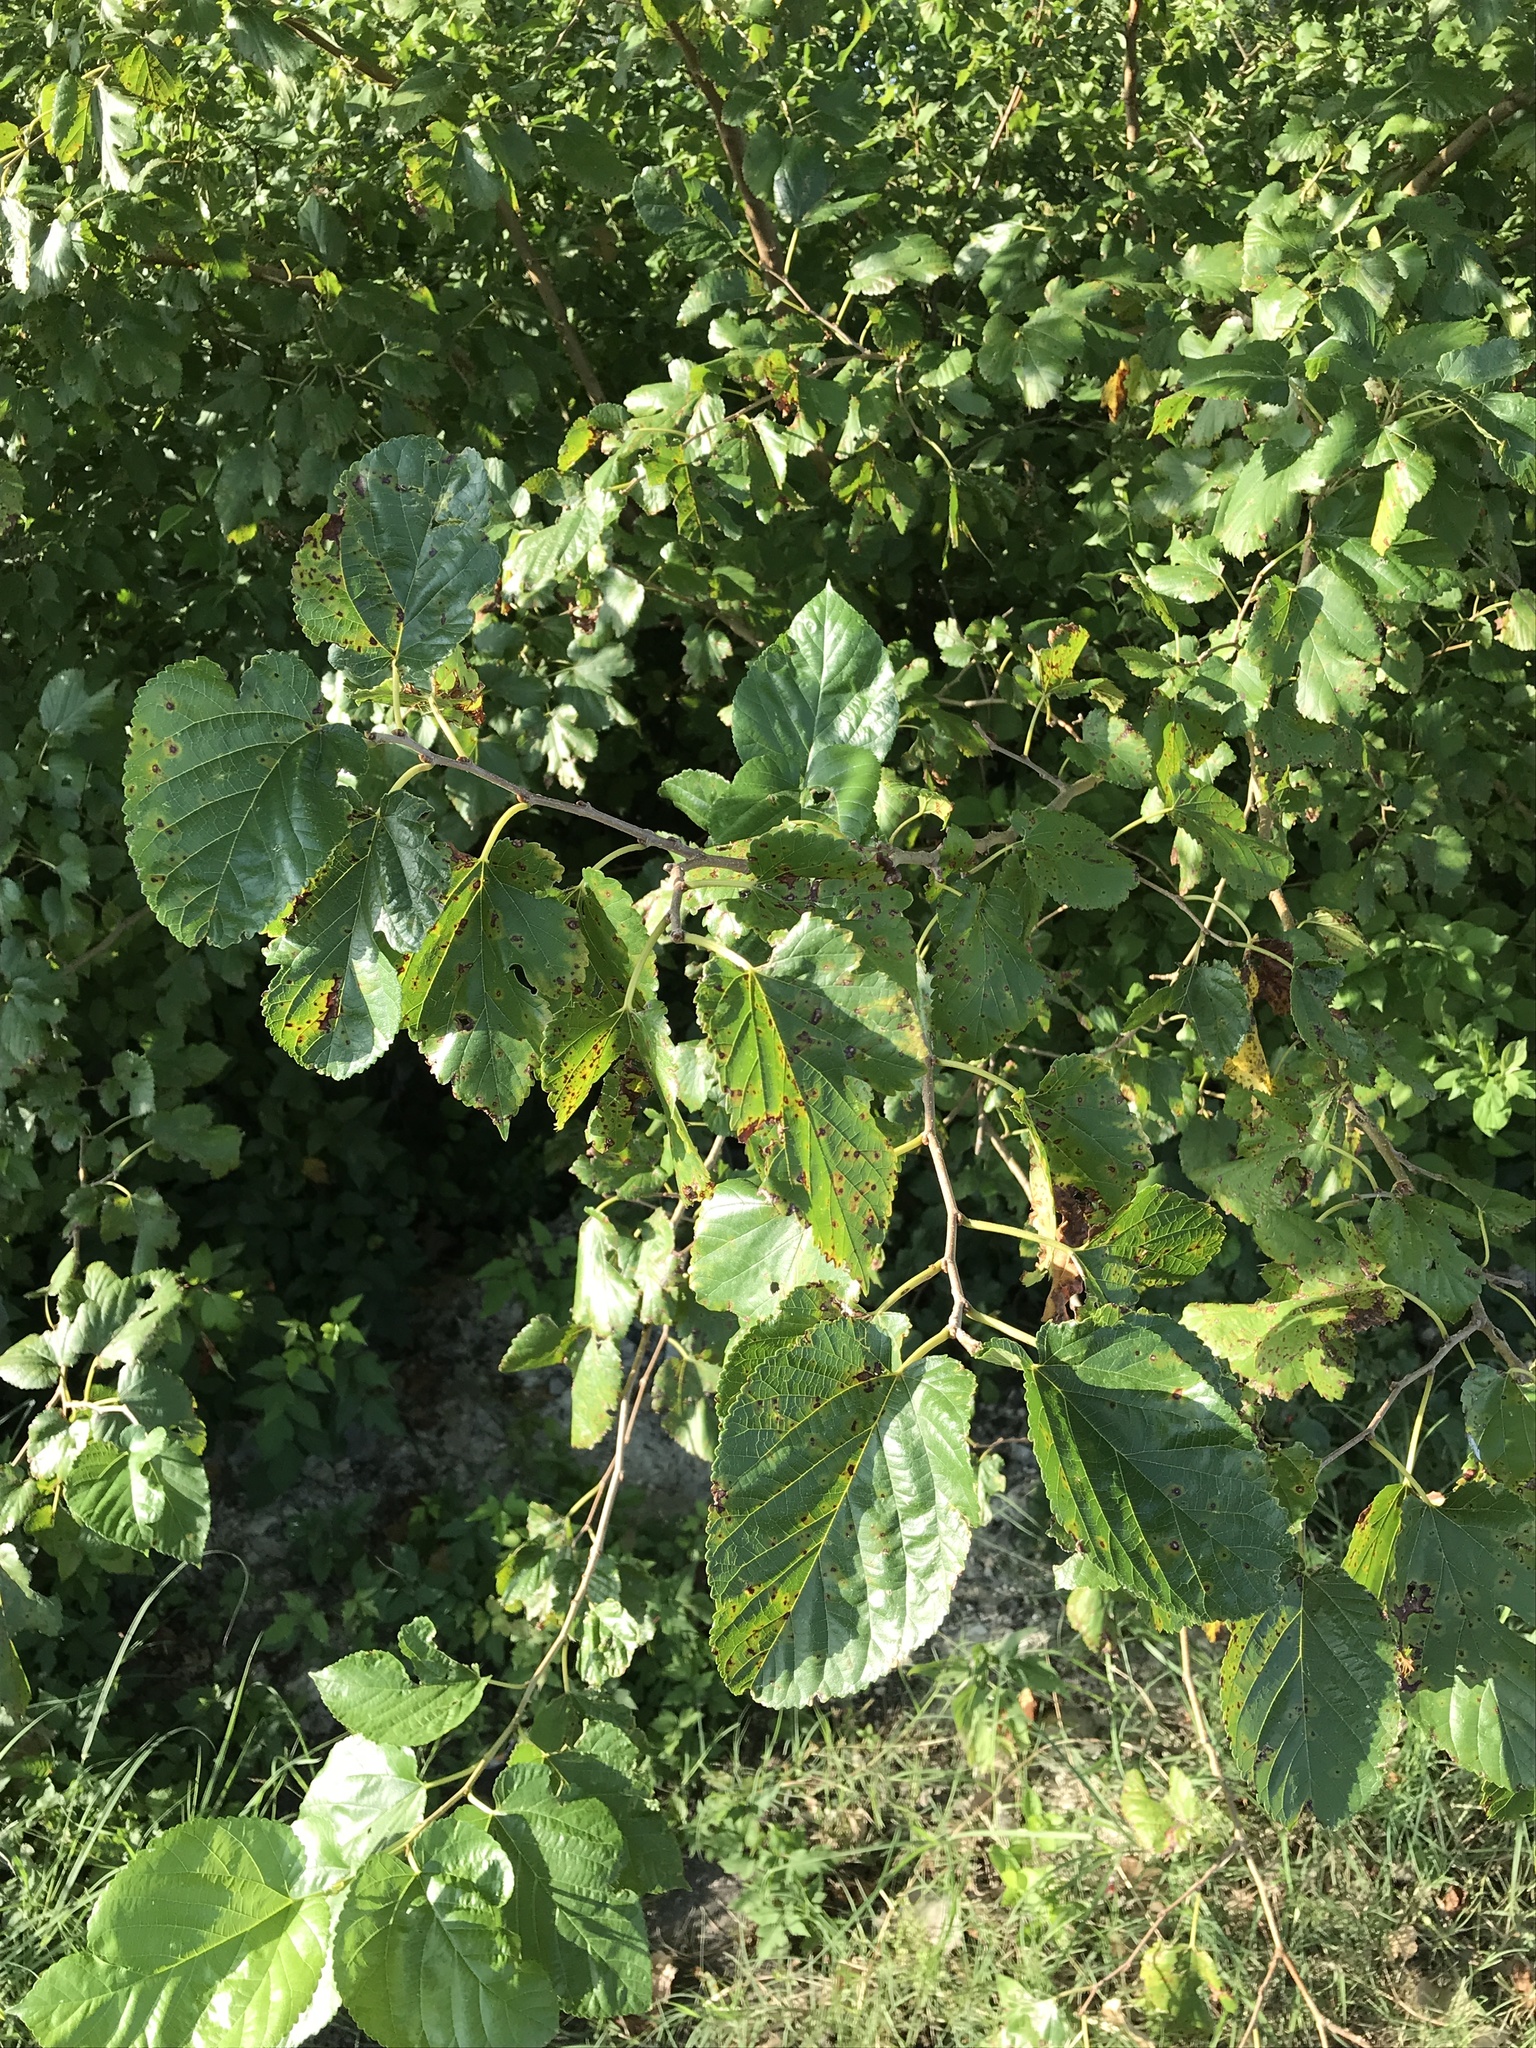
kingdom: Plantae
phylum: Tracheophyta
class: Magnoliopsida
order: Rosales
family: Moraceae
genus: Morus
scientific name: Morus alba
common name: White mulberry
